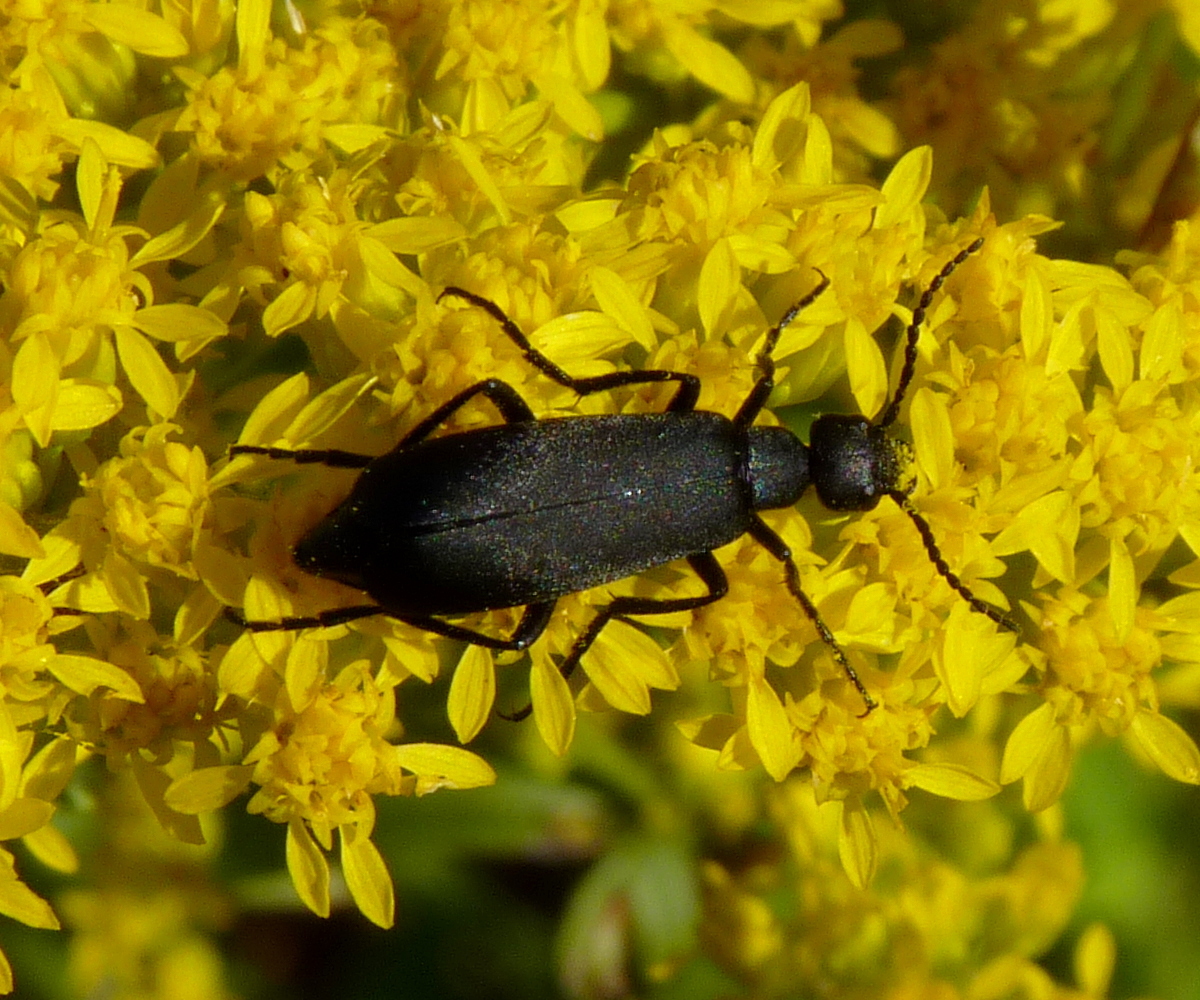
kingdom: Animalia
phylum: Arthropoda
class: Insecta
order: Coleoptera
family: Meloidae
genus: Epicauta
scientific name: Epicauta pensylvanica
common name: Black blister beetle
